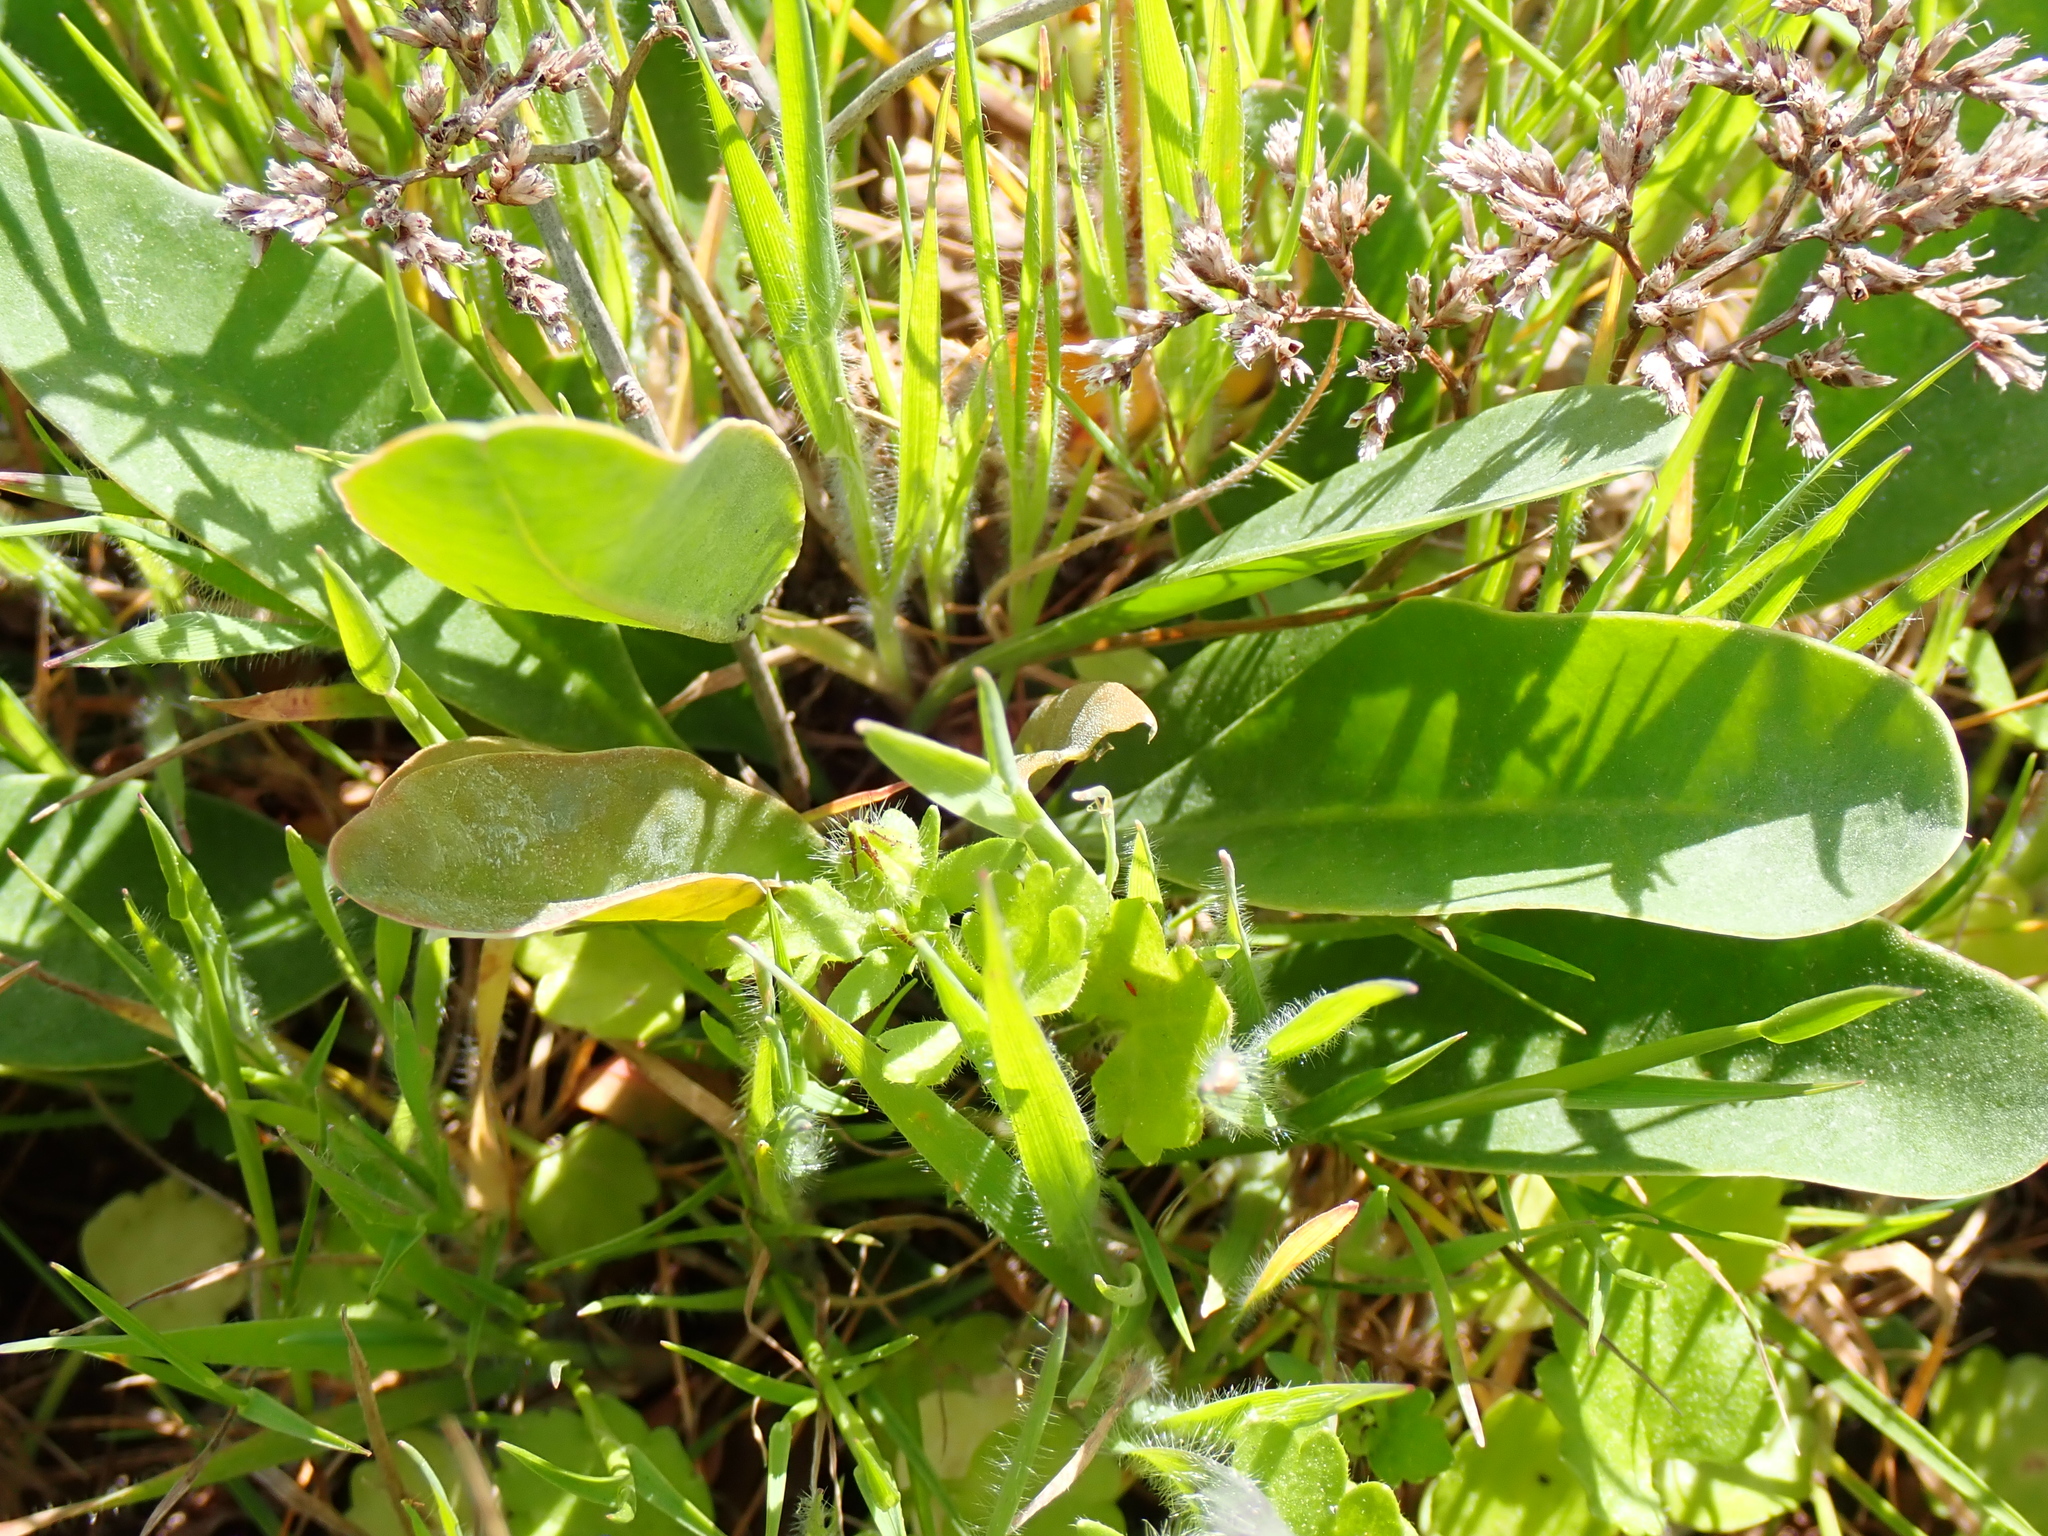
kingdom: Plantae
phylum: Tracheophyta
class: Magnoliopsida
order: Caryophyllales
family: Plumbaginaceae
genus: Limonium
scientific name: Limonium narbonense
